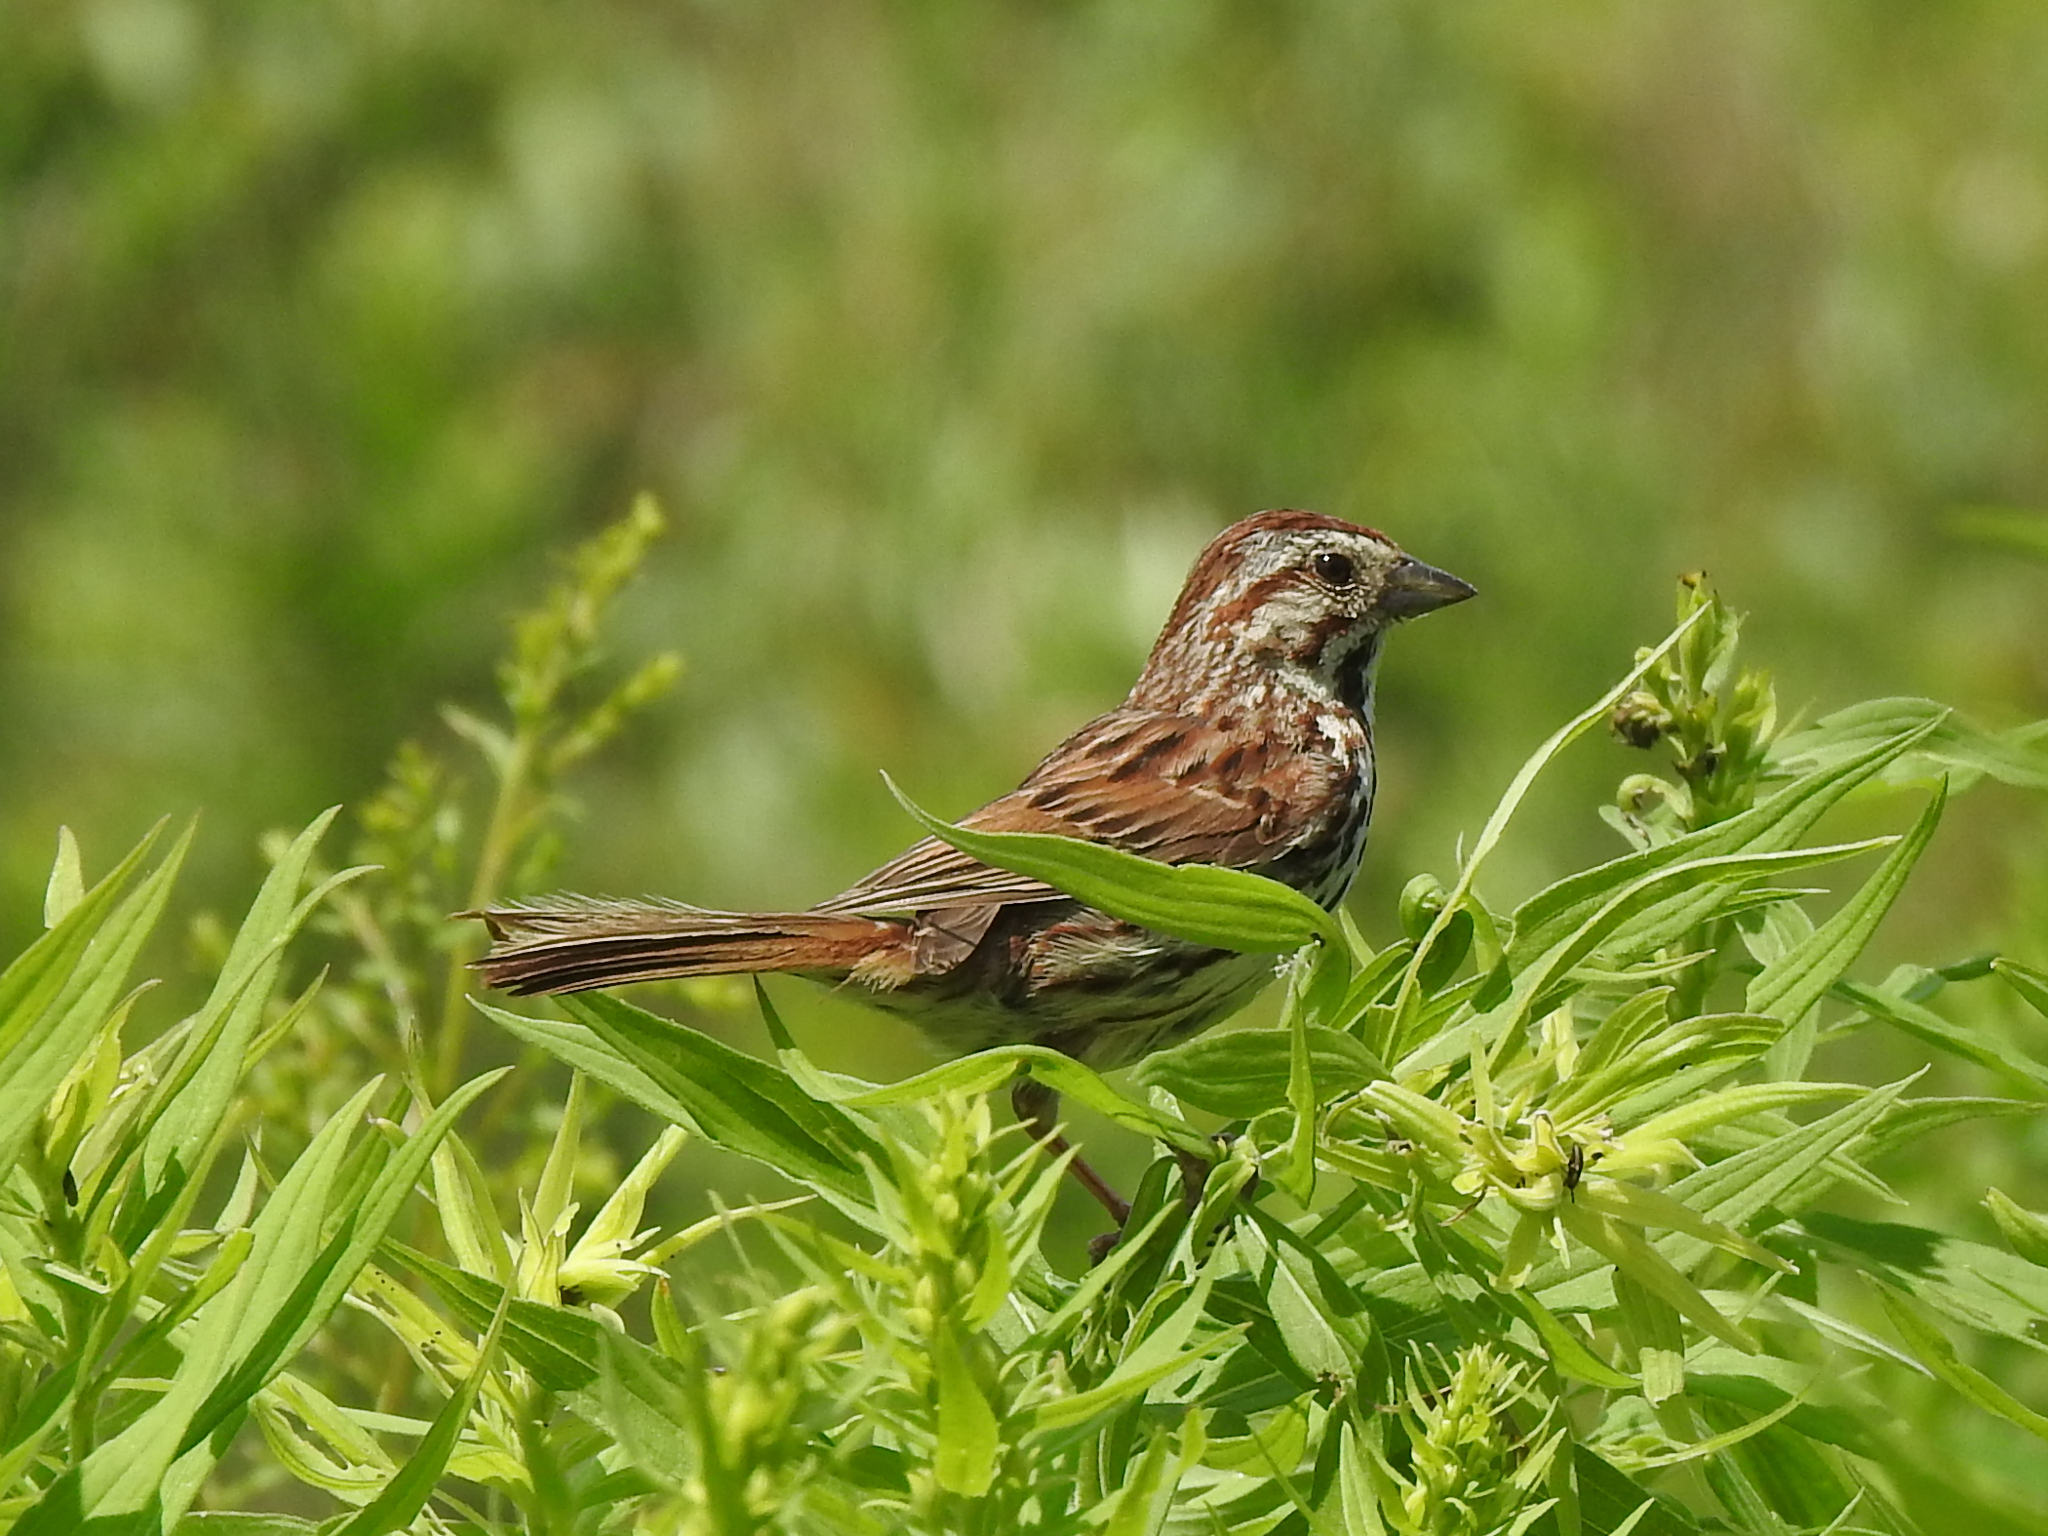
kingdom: Animalia
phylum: Chordata
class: Aves
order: Passeriformes
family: Passerellidae
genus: Melospiza
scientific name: Melospiza melodia
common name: Song sparrow
